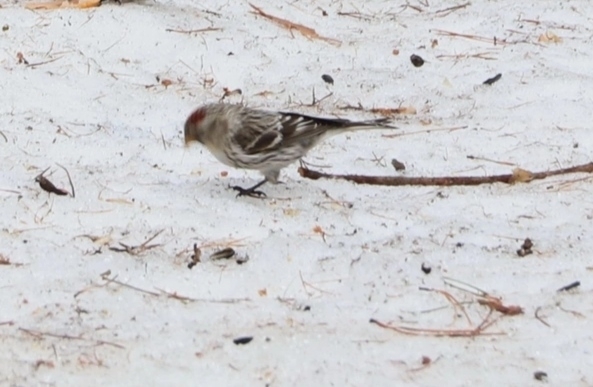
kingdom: Animalia
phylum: Chordata
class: Aves
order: Passeriformes
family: Fringillidae
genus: Acanthis
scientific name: Acanthis flammea
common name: Common redpoll
